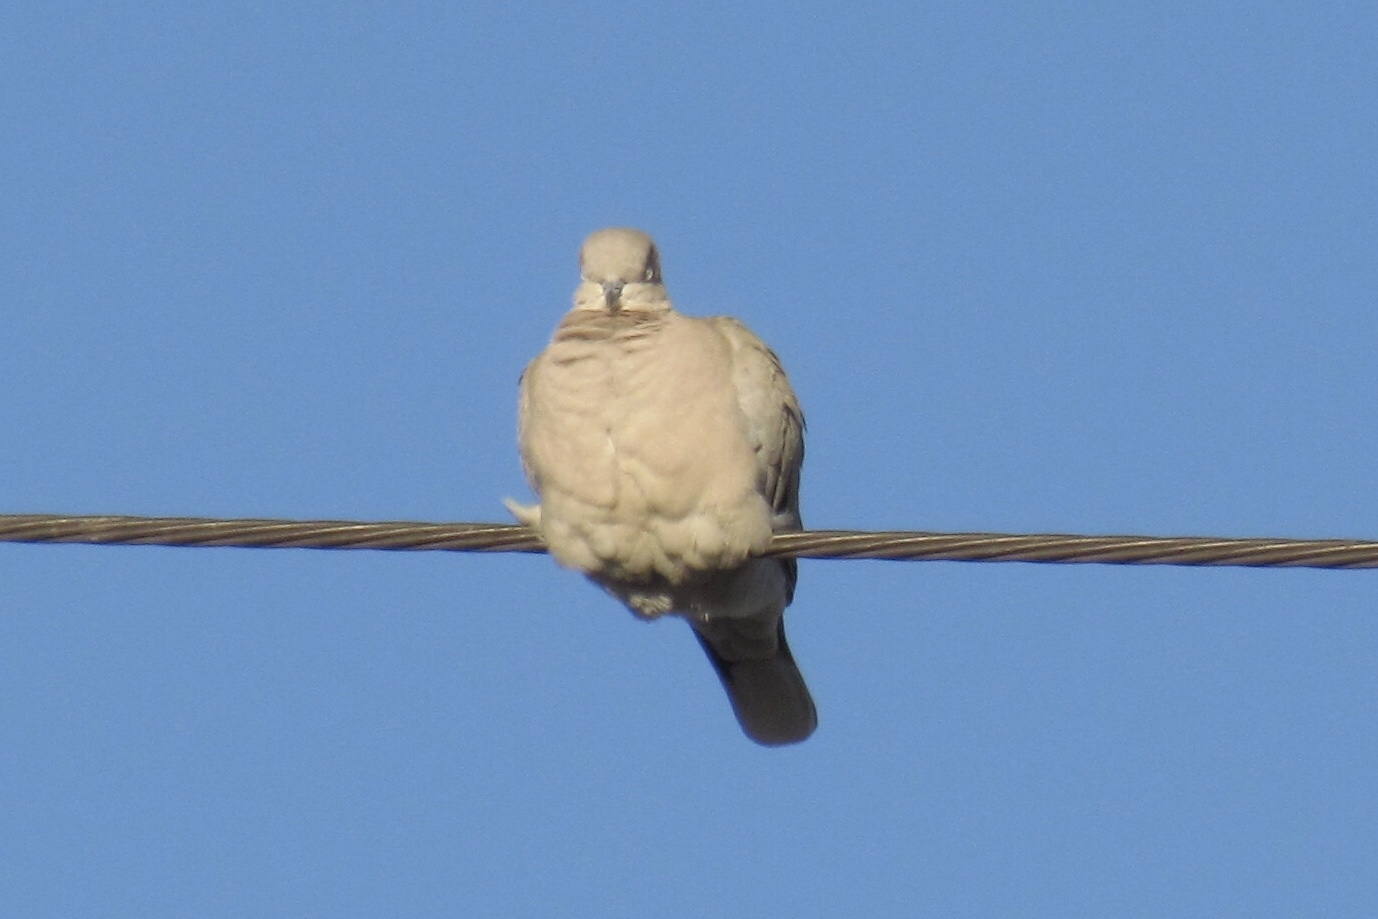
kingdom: Animalia
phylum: Chordata
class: Aves
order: Columbiformes
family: Columbidae
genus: Streptopelia
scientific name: Streptopelia decaocto
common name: Eurasian collared dove
